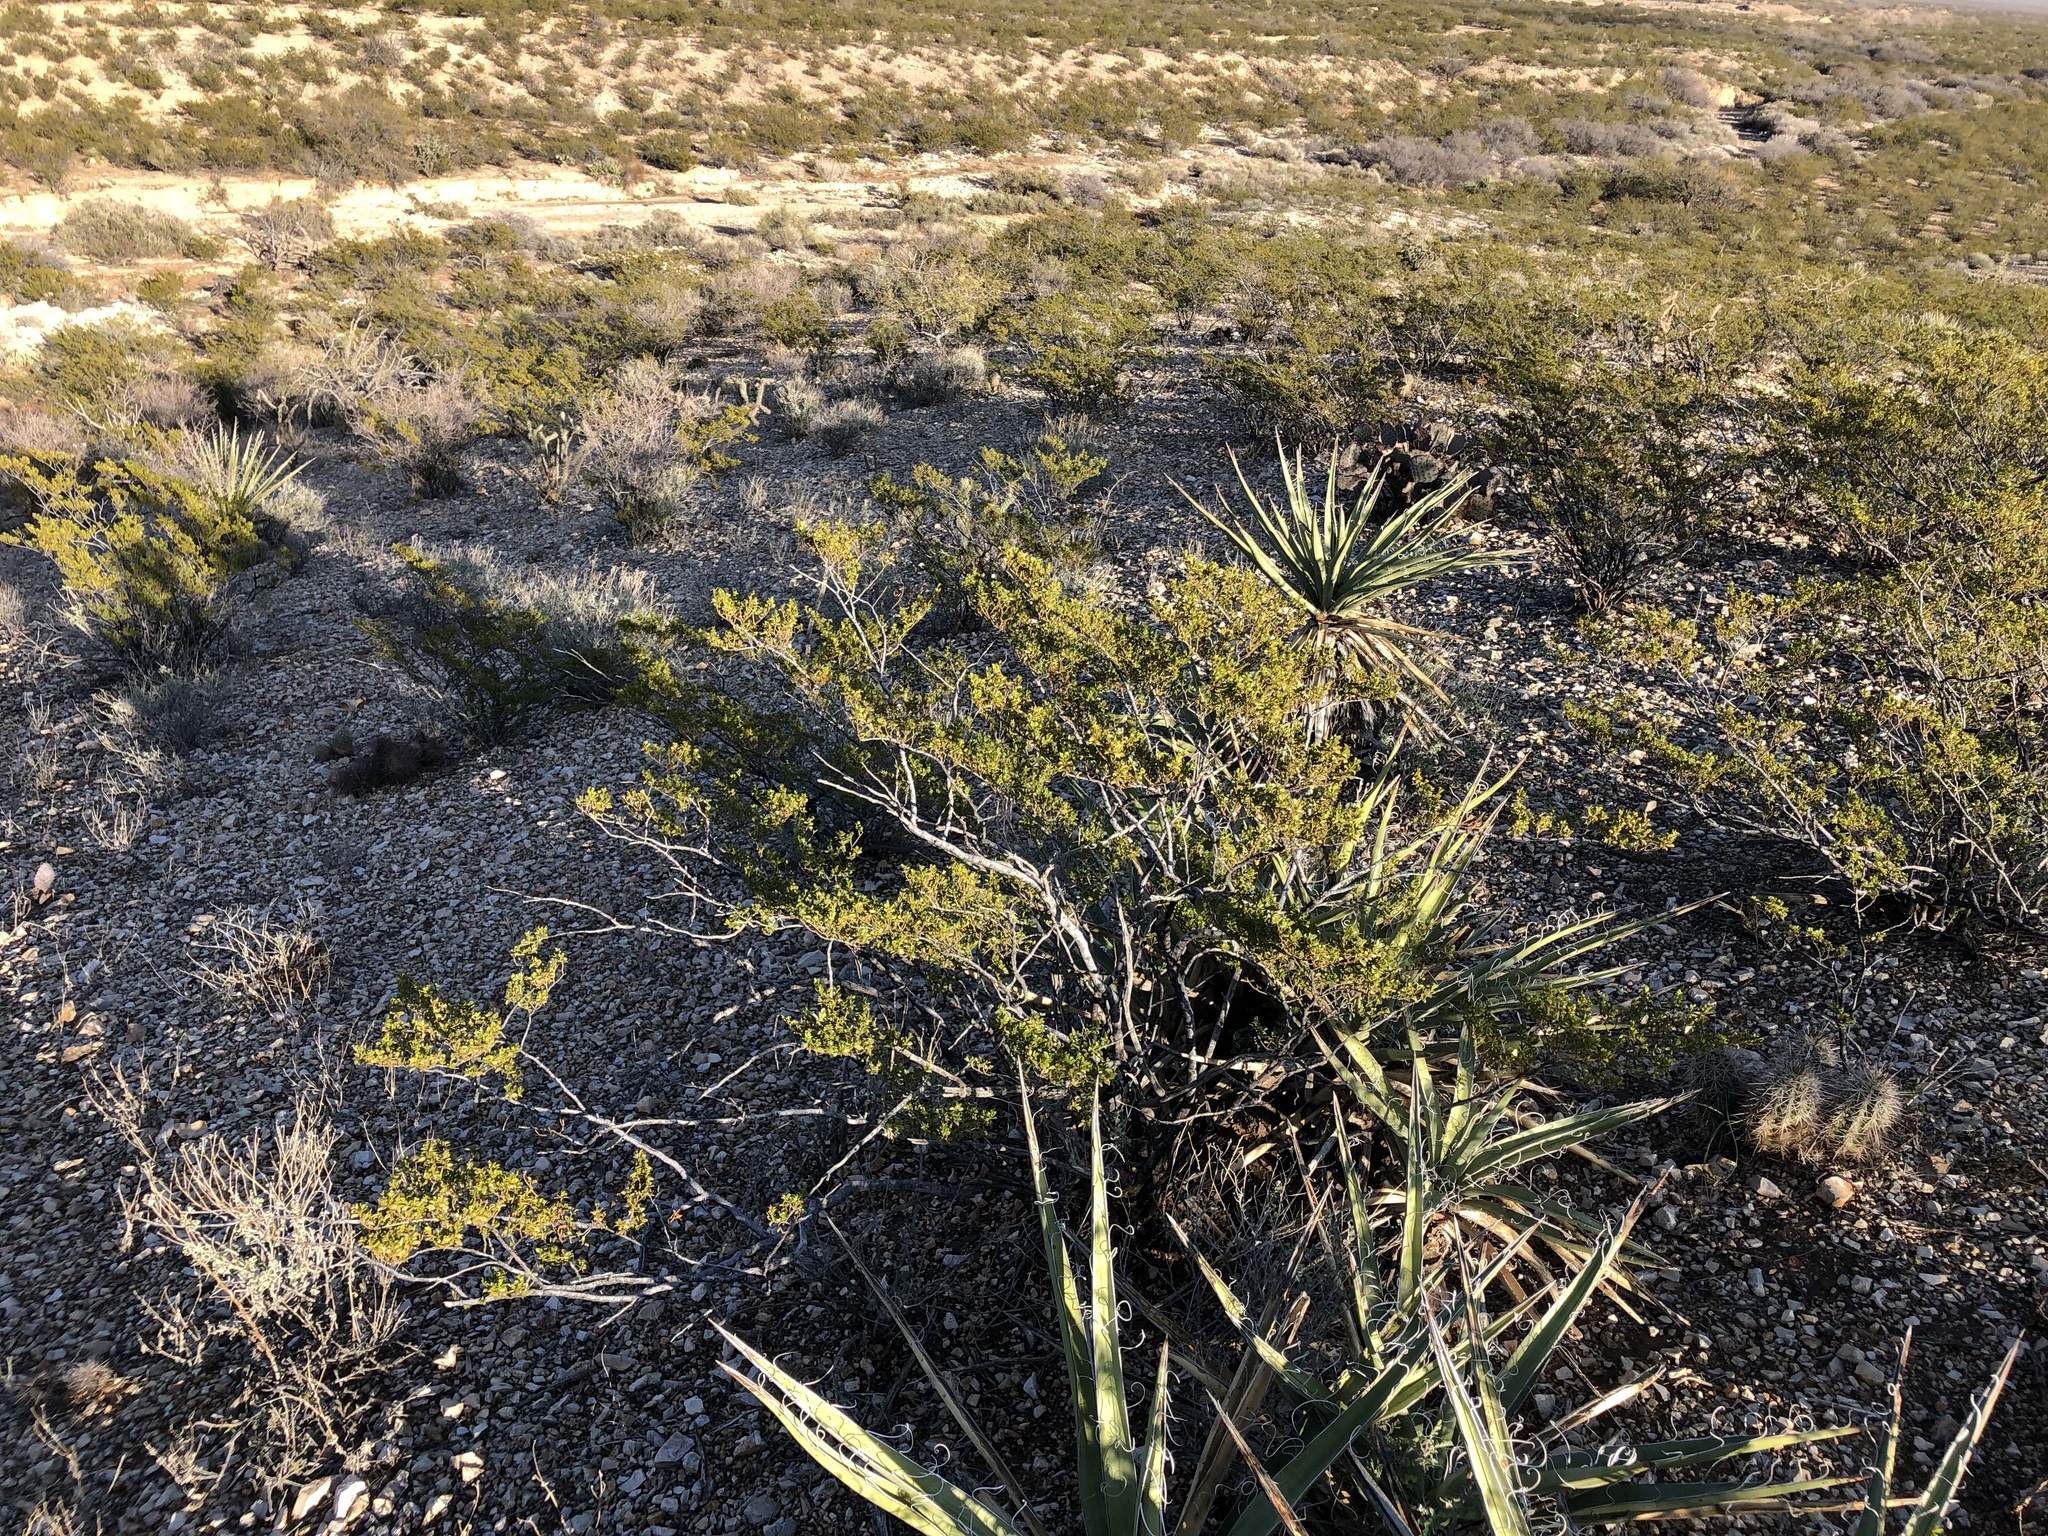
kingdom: Plantae
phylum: Tracheophyta
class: Magnoliopsida
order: Zygophyllales
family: Zygophyllaceae
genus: Larrea
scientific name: Larrea tridentata
